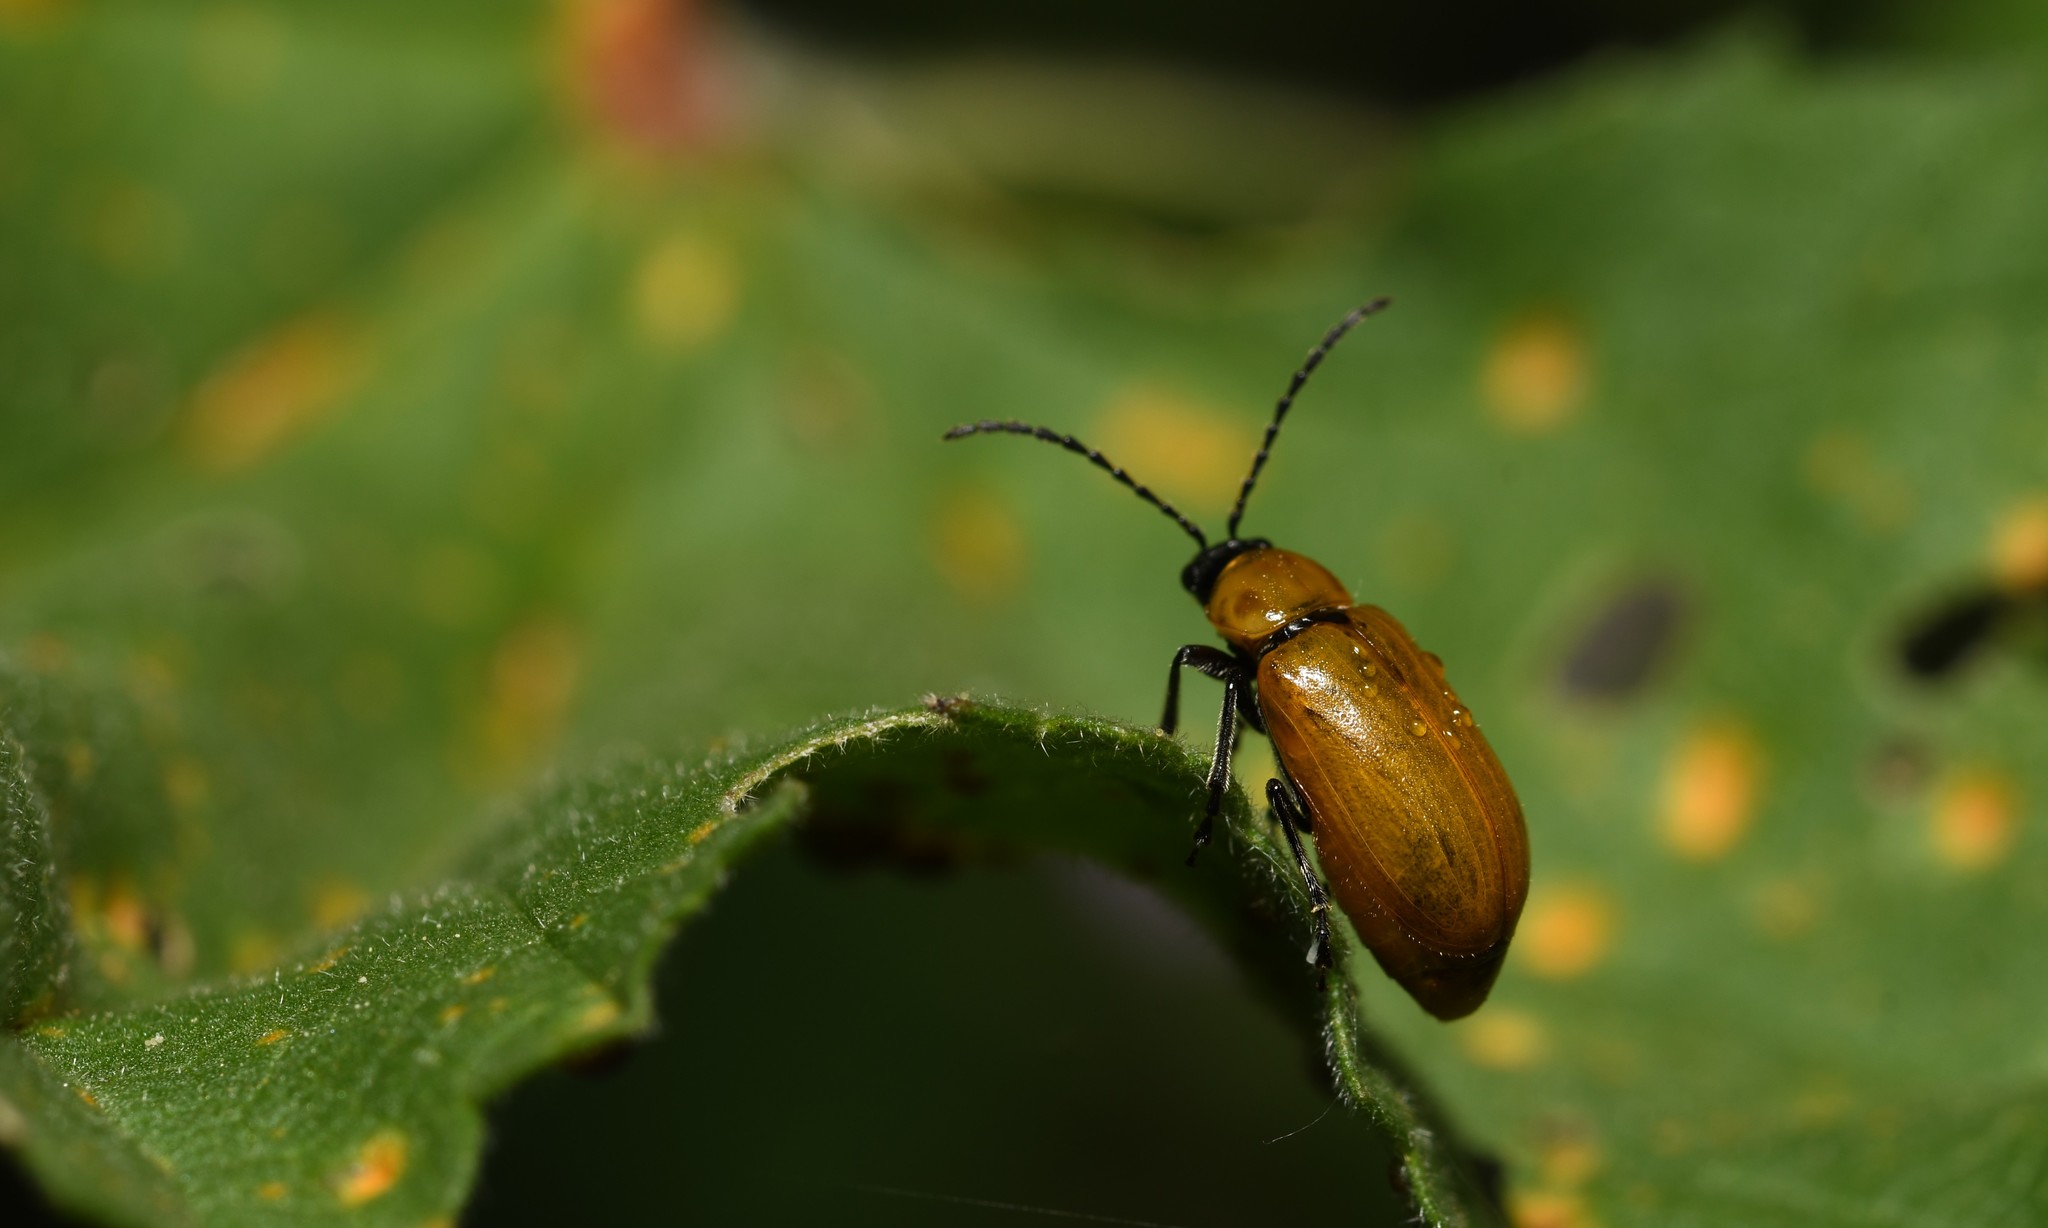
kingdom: Animalia
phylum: Arthropoda
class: Insecta
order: Coleoptera
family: Chrysomelidae
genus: Exosoma
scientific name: Exosoma lusitanicum
